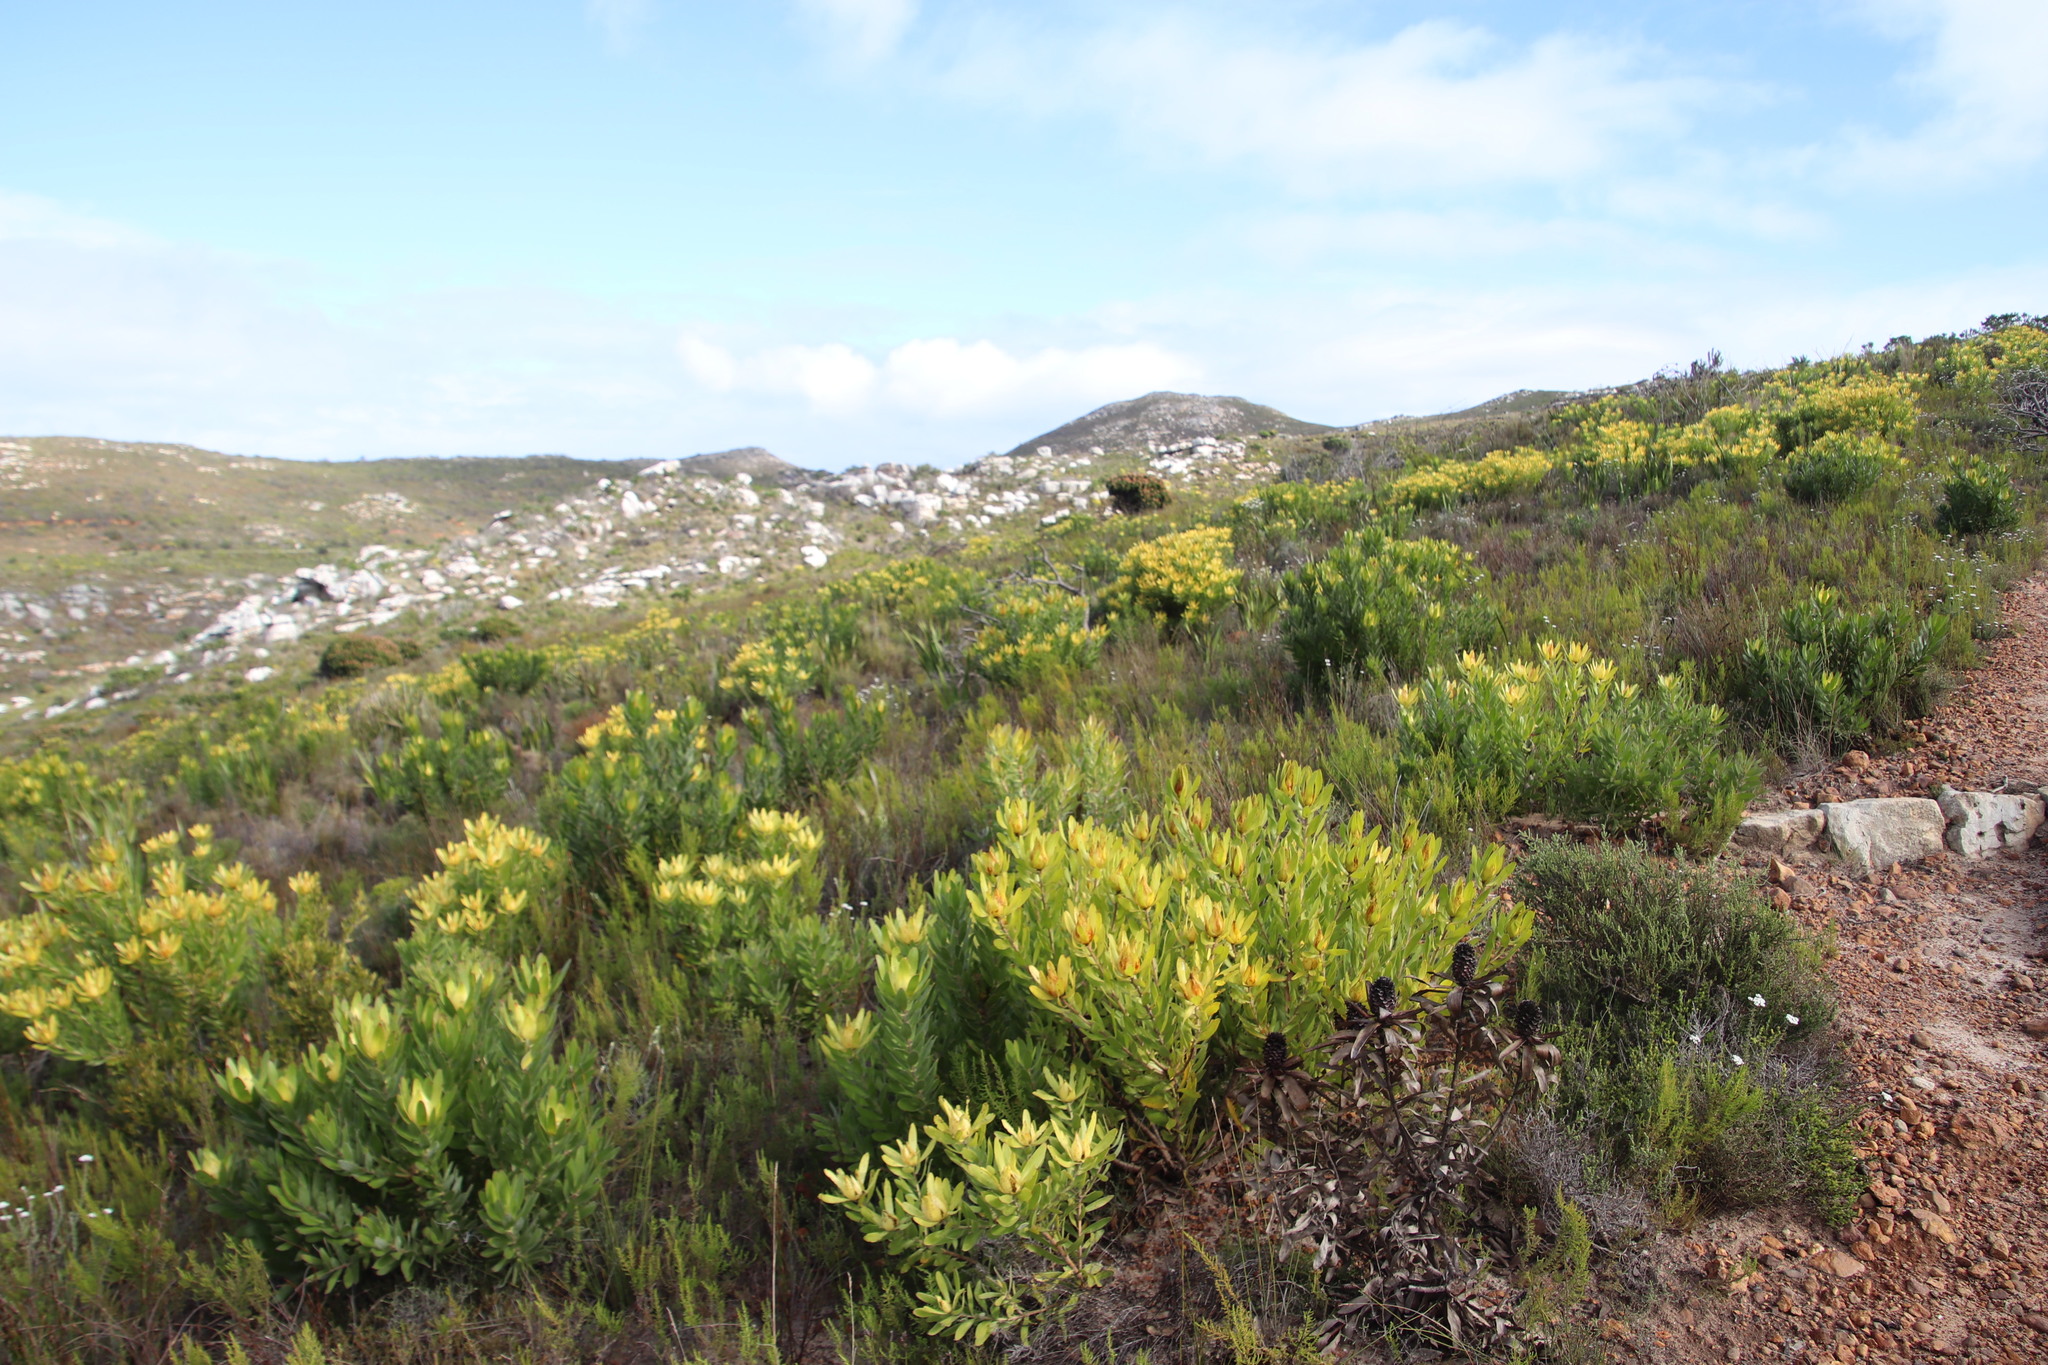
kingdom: Plantae
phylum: Tracheophyta
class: Magnoliopsida
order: Proteales
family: Proteaceae
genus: Leucadendron
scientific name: Leucadendron laureolum
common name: Golden sunshinebush
